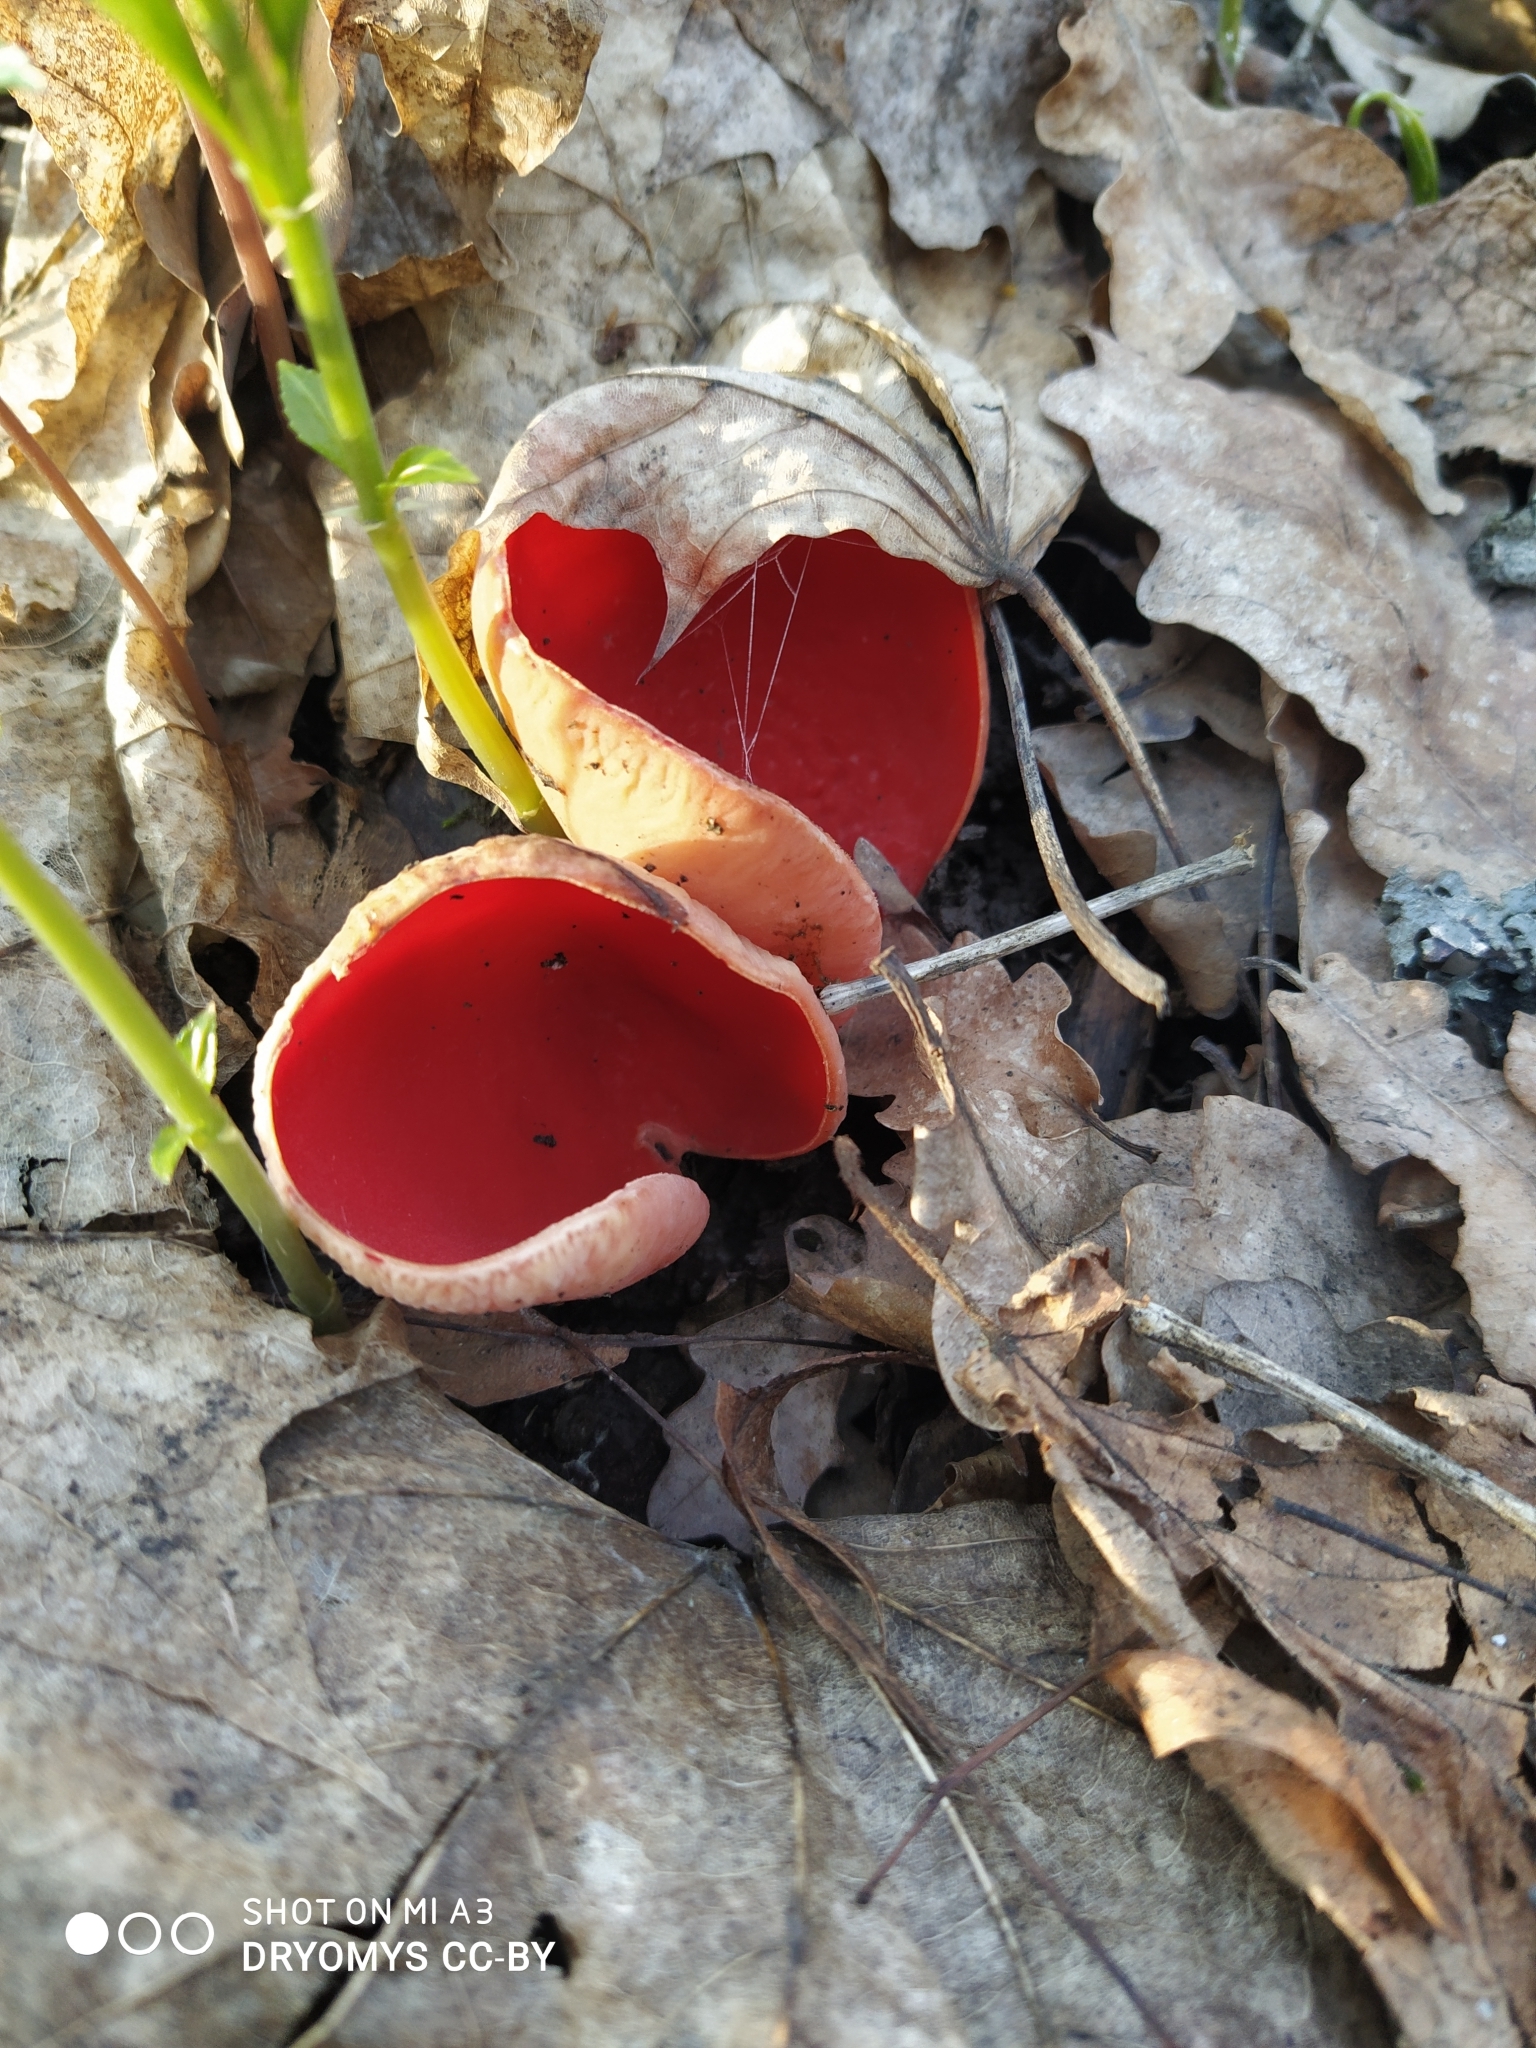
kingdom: Fungi
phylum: Ascomycota
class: Pezizomycetes
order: Pezizales
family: Sarcoscyphaceae
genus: Sarcoscypha
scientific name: Sarcoscypha austriaca
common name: Scarlet elfcup
